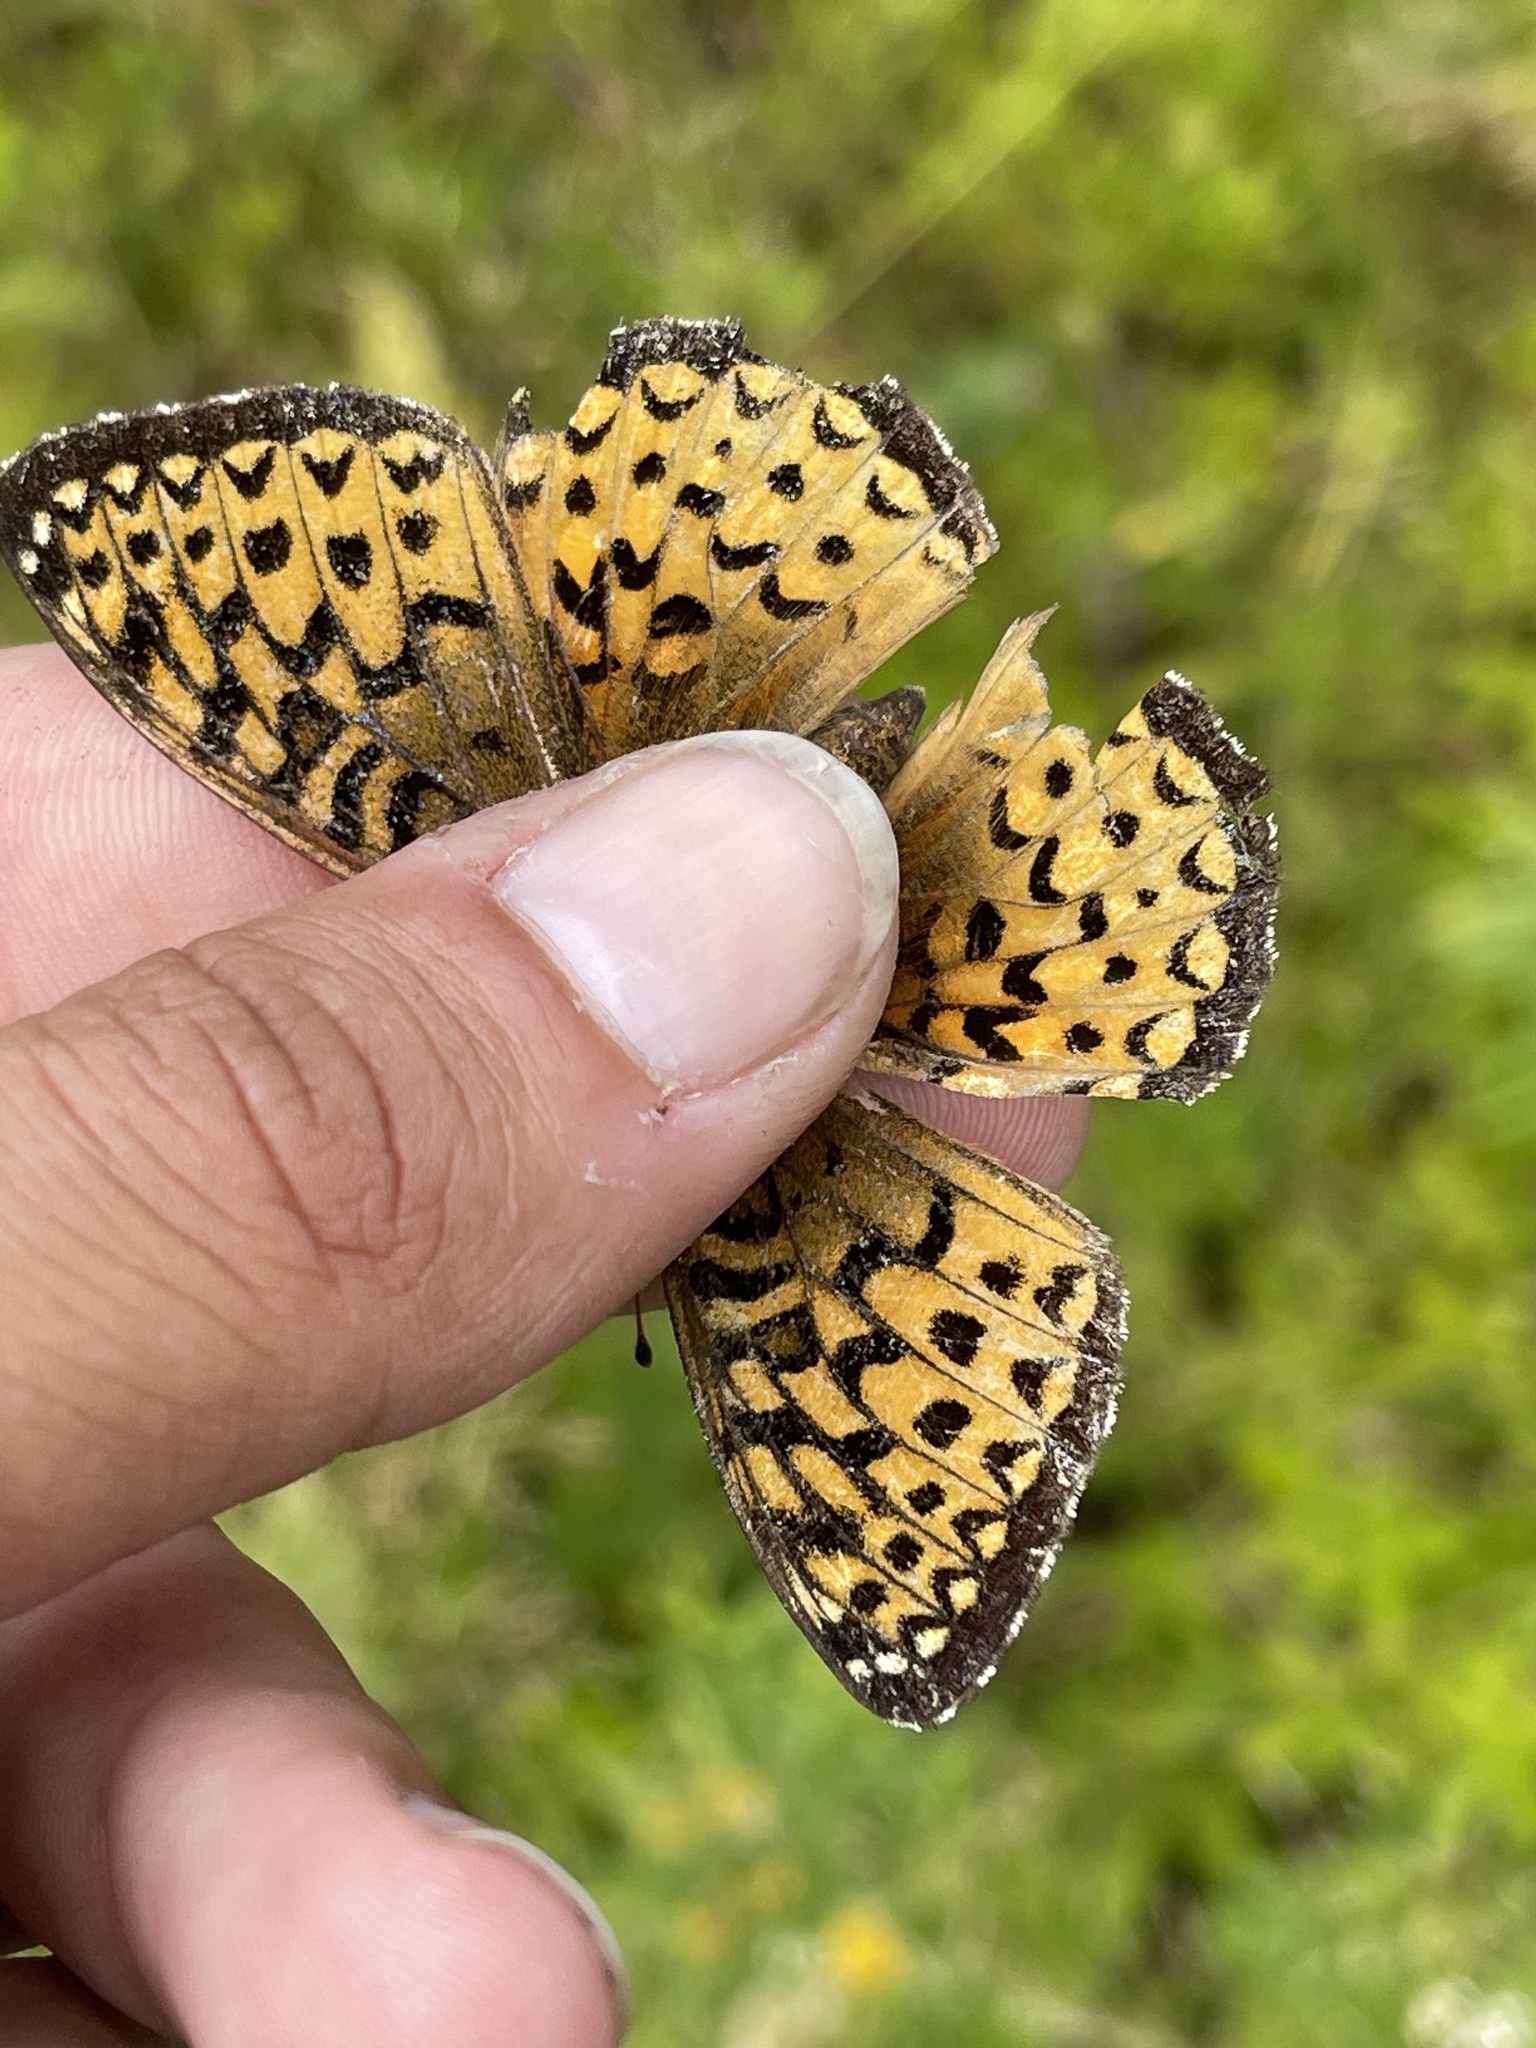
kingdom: Animalia
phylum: Arthropoda
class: Insecta
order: Lepidoptera
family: Nymphalidae
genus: Speyeria
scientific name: Speyeria atlantis
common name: Atlantis fritillary
